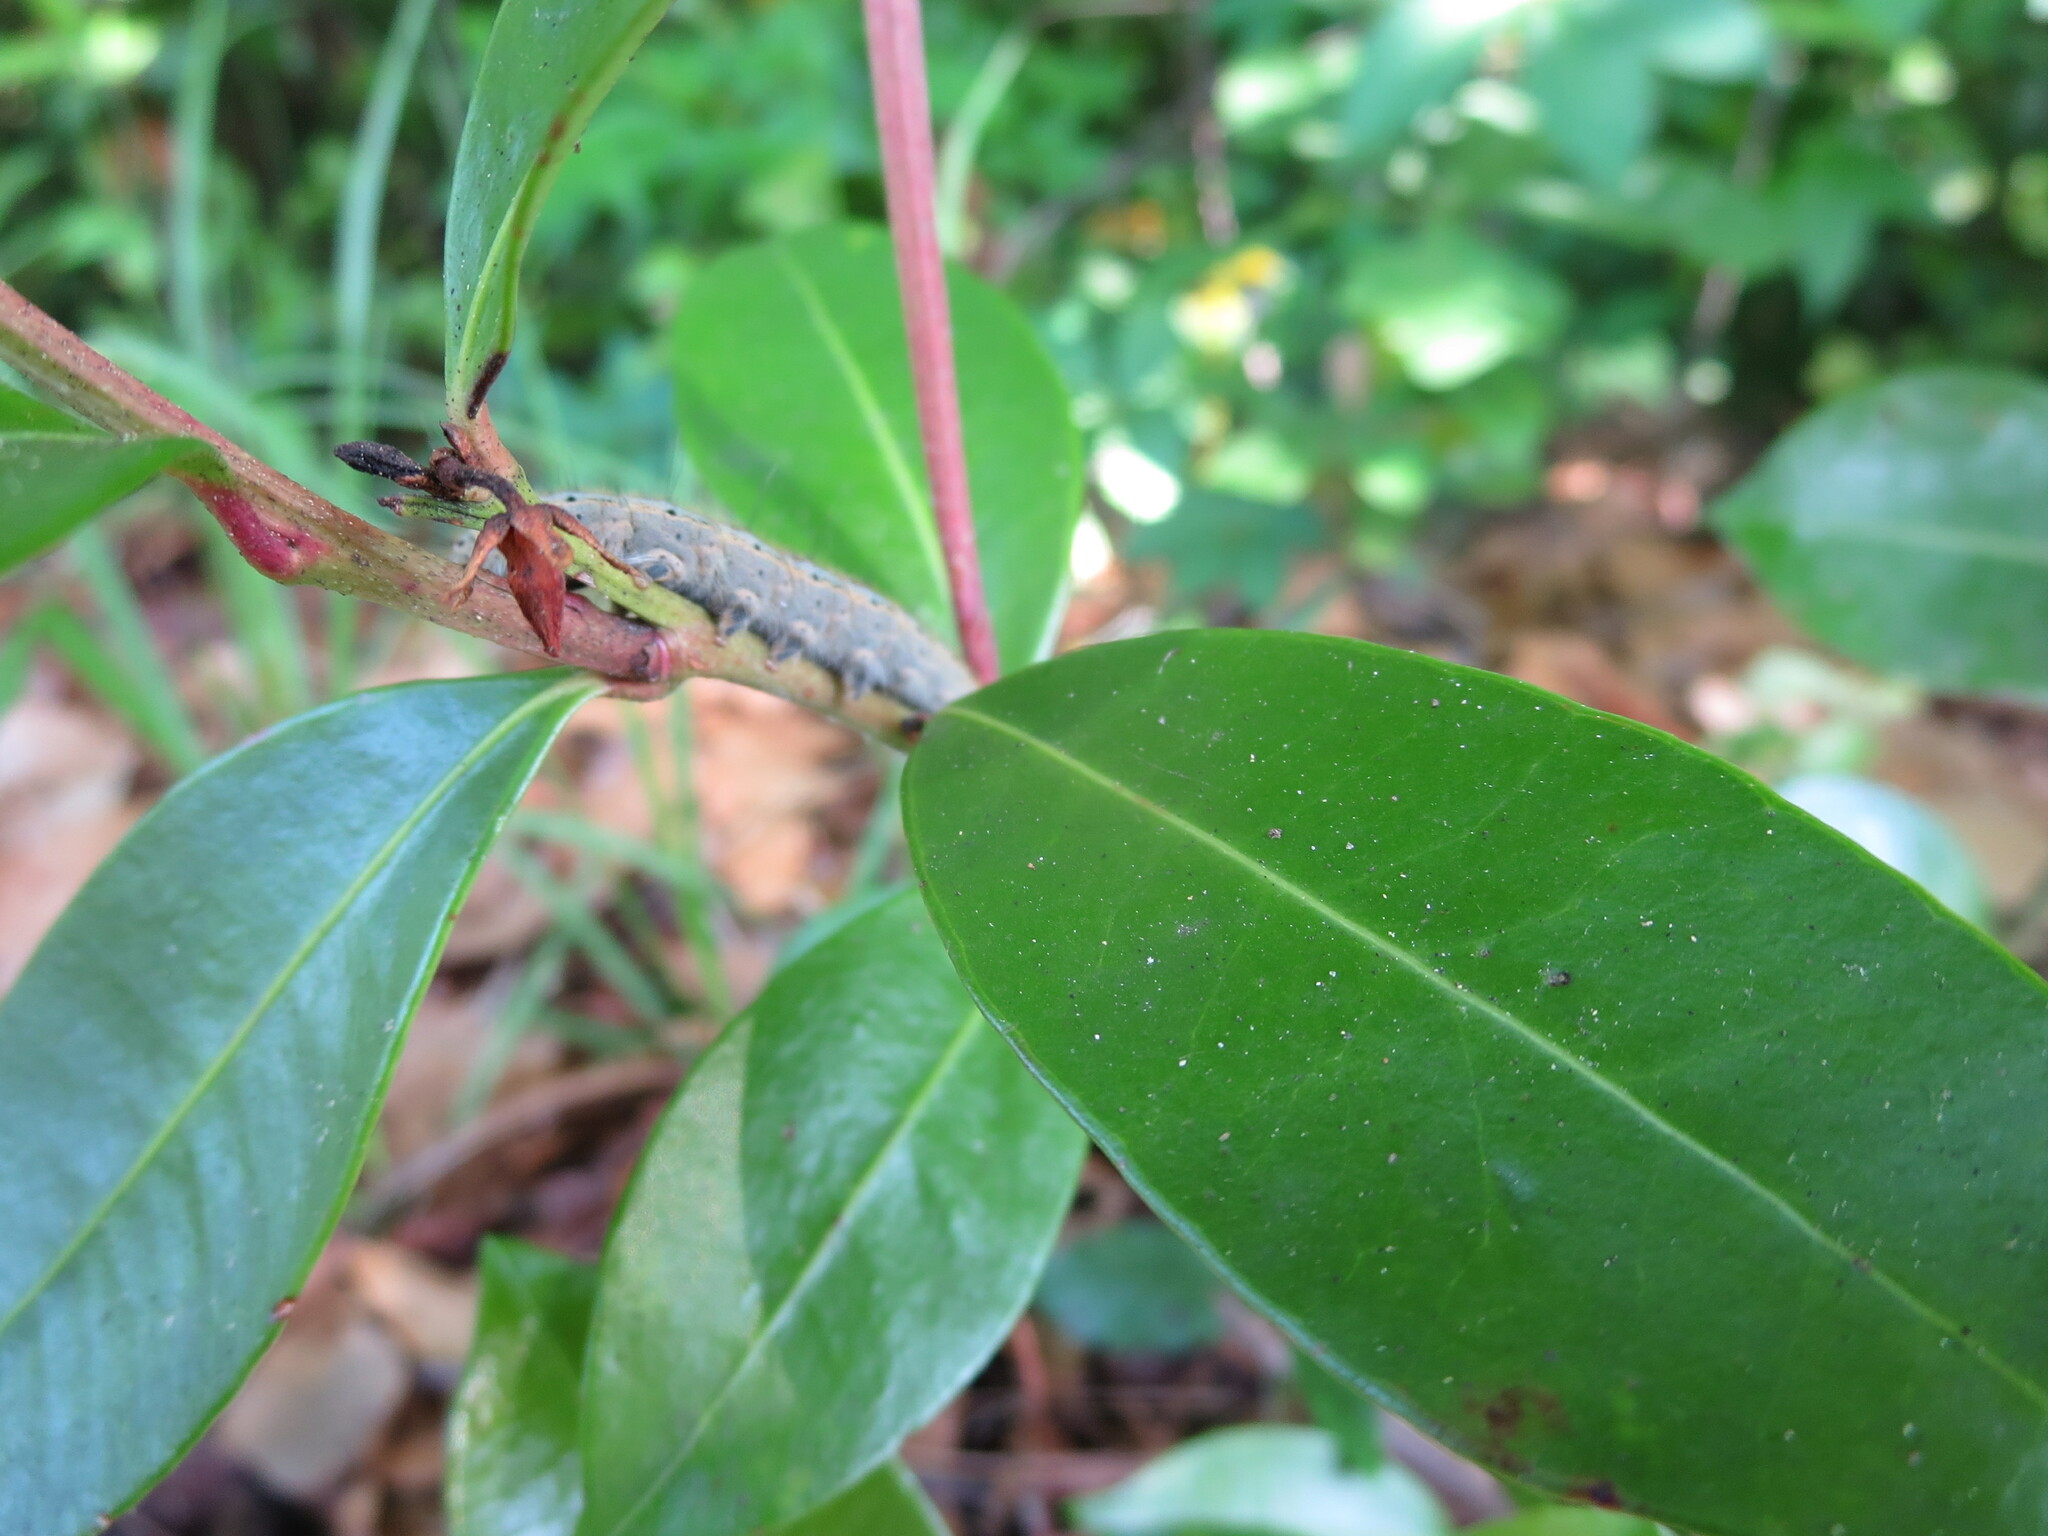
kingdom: Animalia
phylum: Arthropoda
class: Insecta
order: Lepidoptera
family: Lasiocampidae
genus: Malacosoma
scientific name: Malacosoma disstria
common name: Forest tent caterpillar
